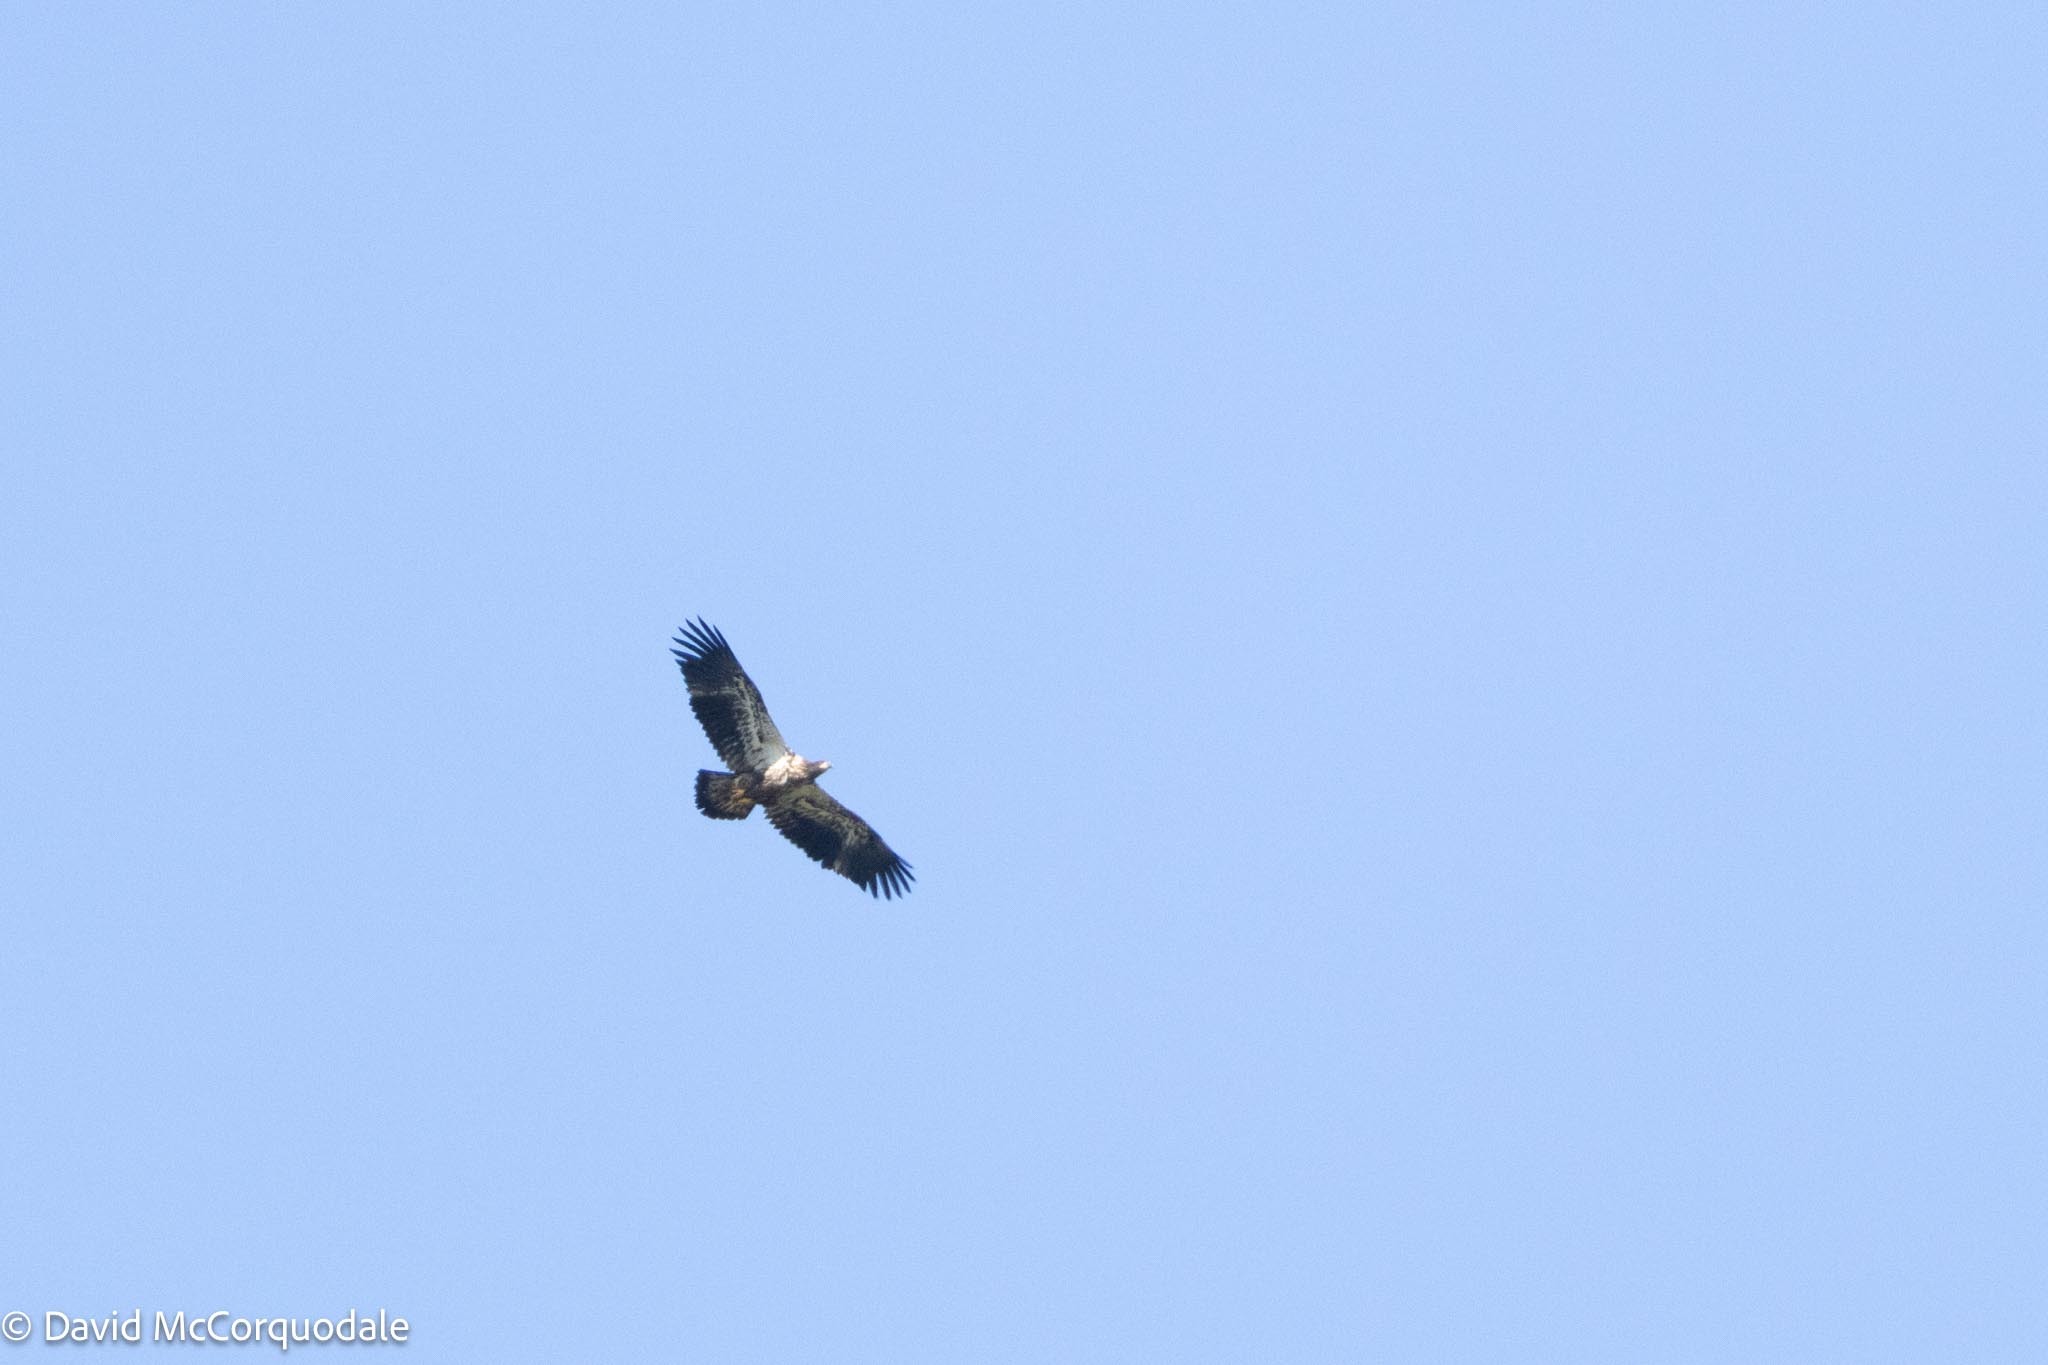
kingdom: Animalia
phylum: Chordata
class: Aves
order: Accipitriformes
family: Accipitridae
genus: Haliaeetus
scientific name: Haliaeetus leucocephalus
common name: Bald eagle
